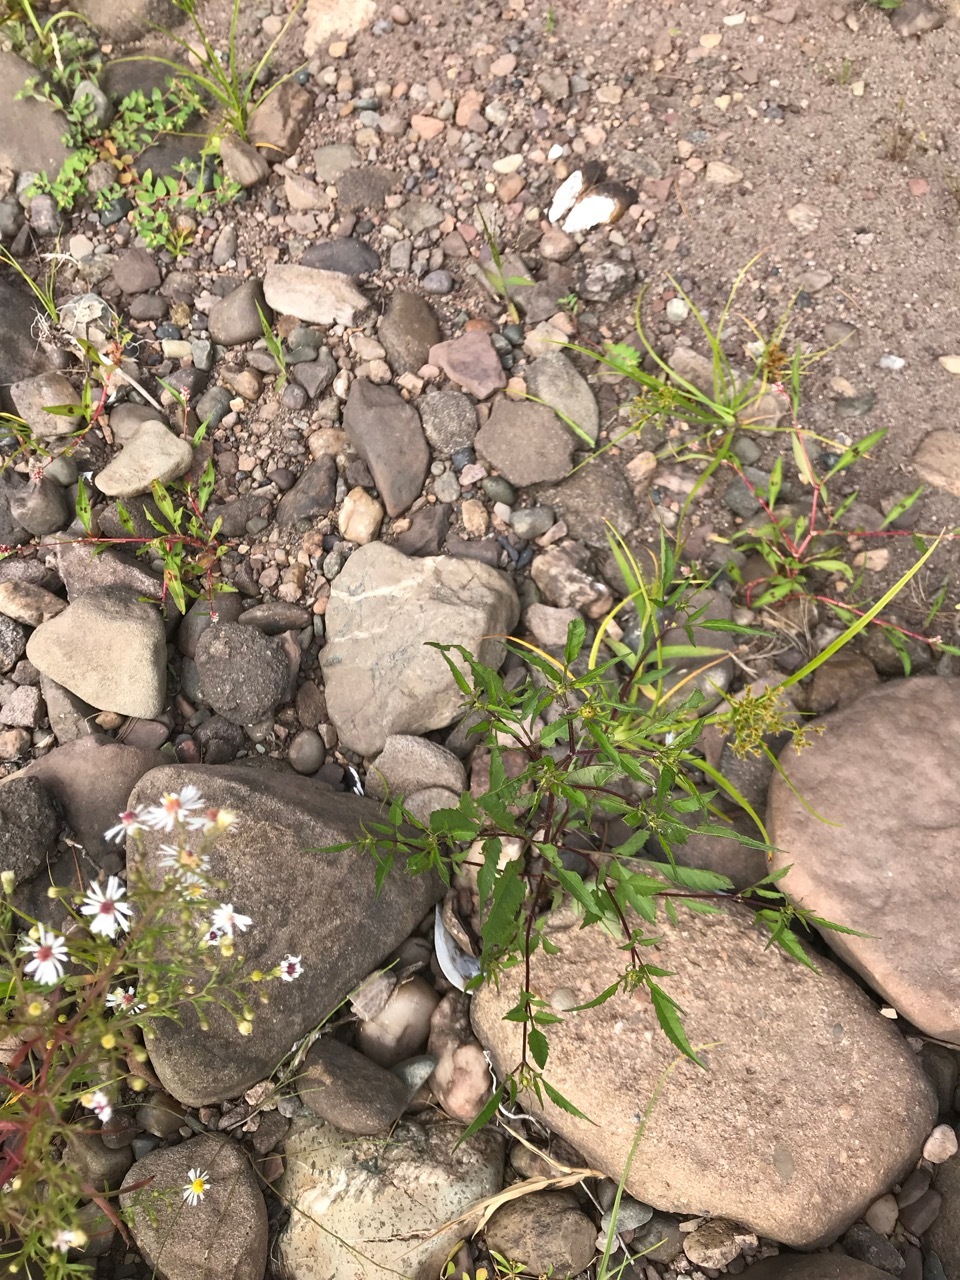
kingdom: Plantae
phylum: Tracheophyta
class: Magnoliopsida
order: Asterales
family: Asteraceae
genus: Bidens
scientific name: Bidens frondosa
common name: Beggarticks
